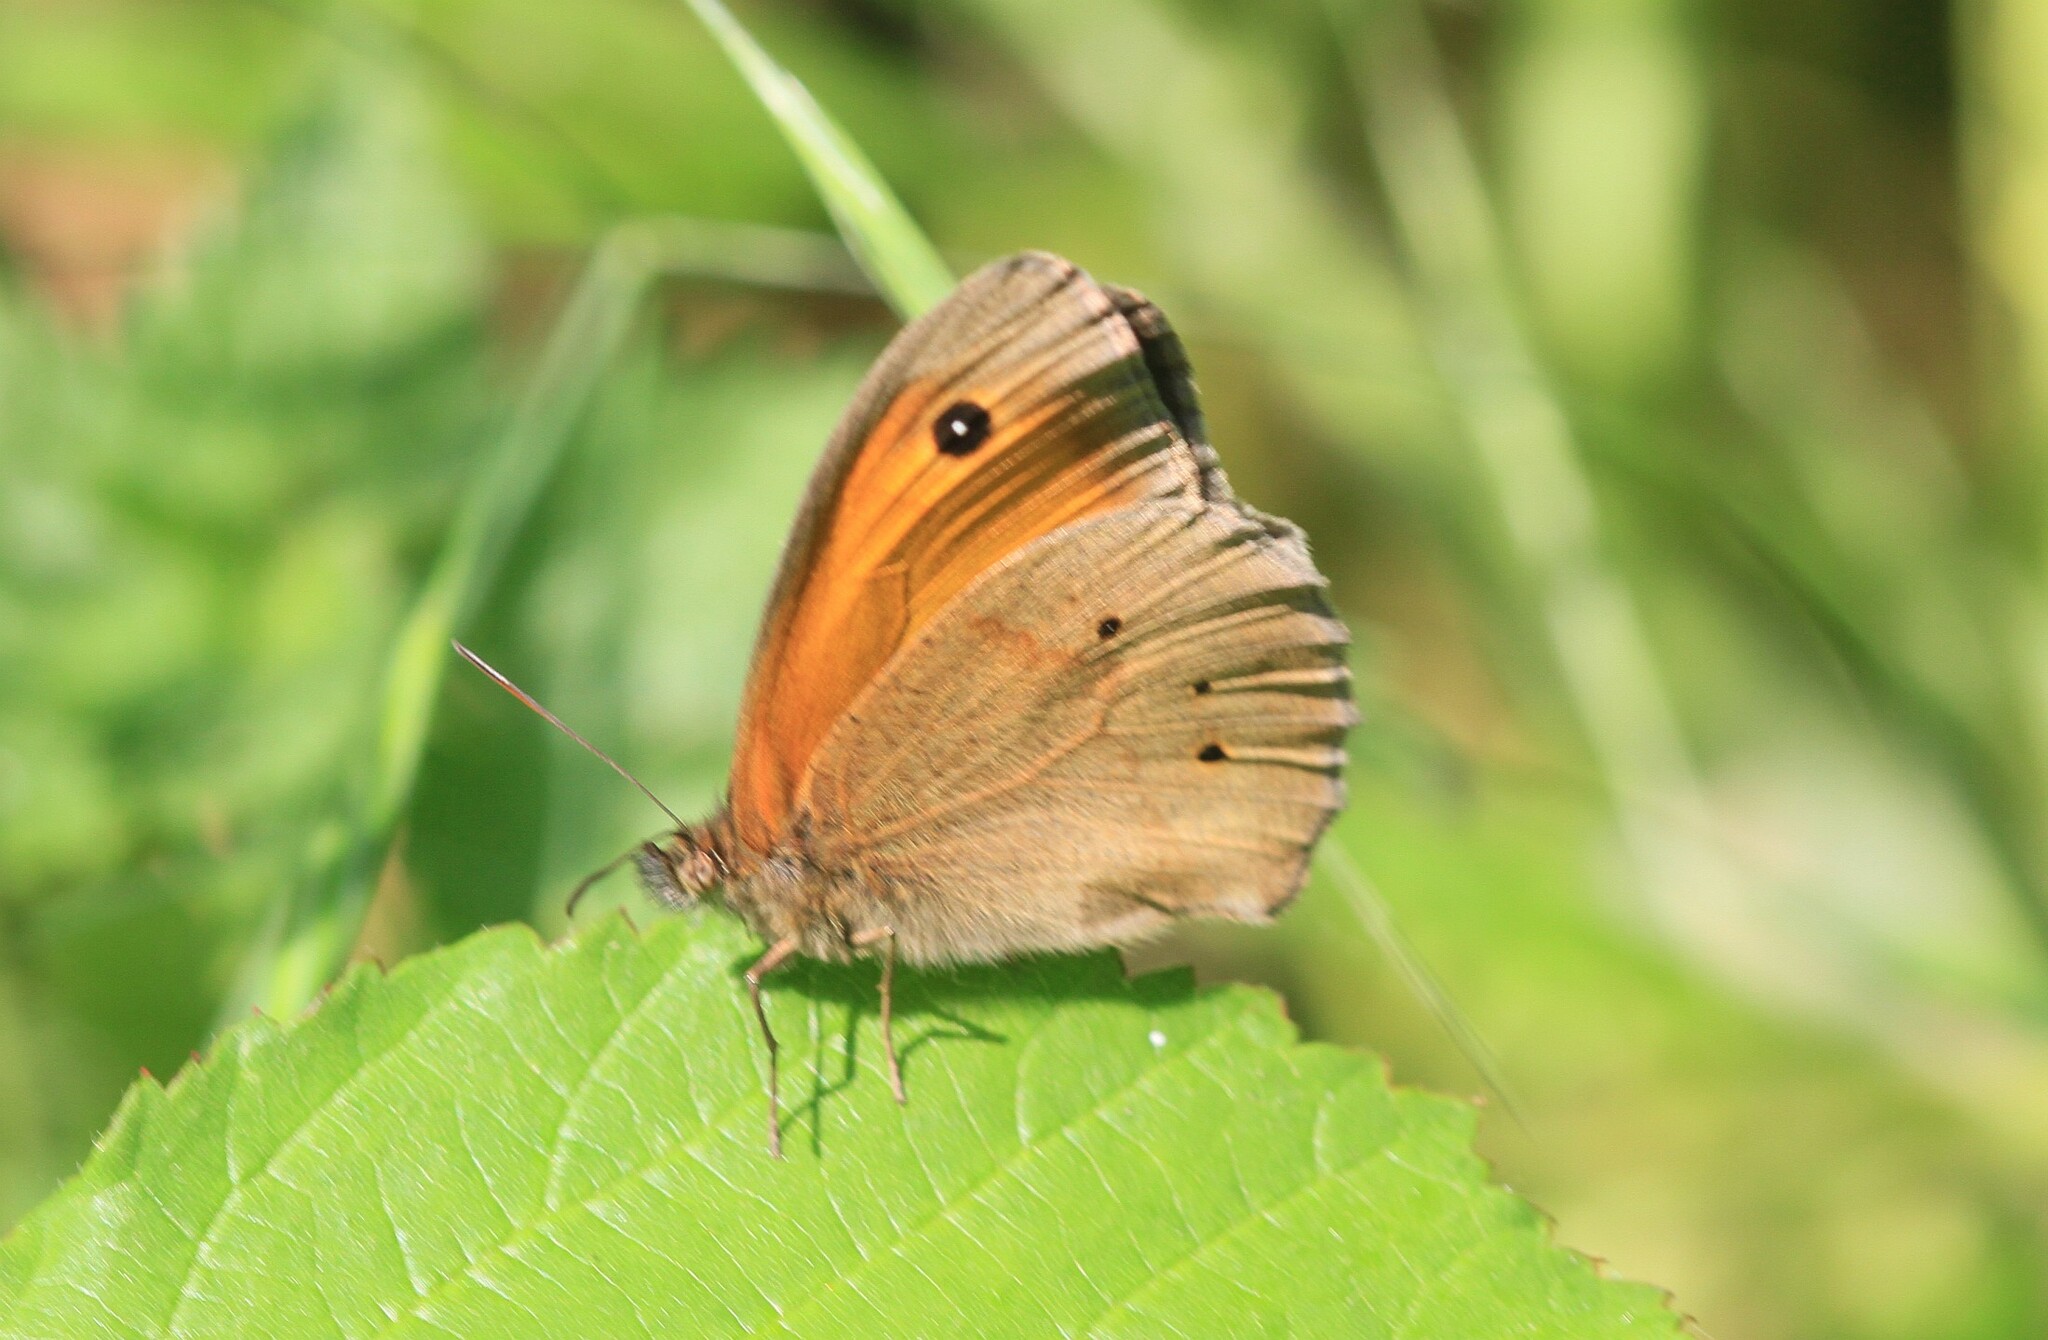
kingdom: Animalia
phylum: Arthropoda
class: Insecta
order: Lepidoptera
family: Nymphalidae
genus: Maniola
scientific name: Maniola jurtina
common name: Meadow brown
